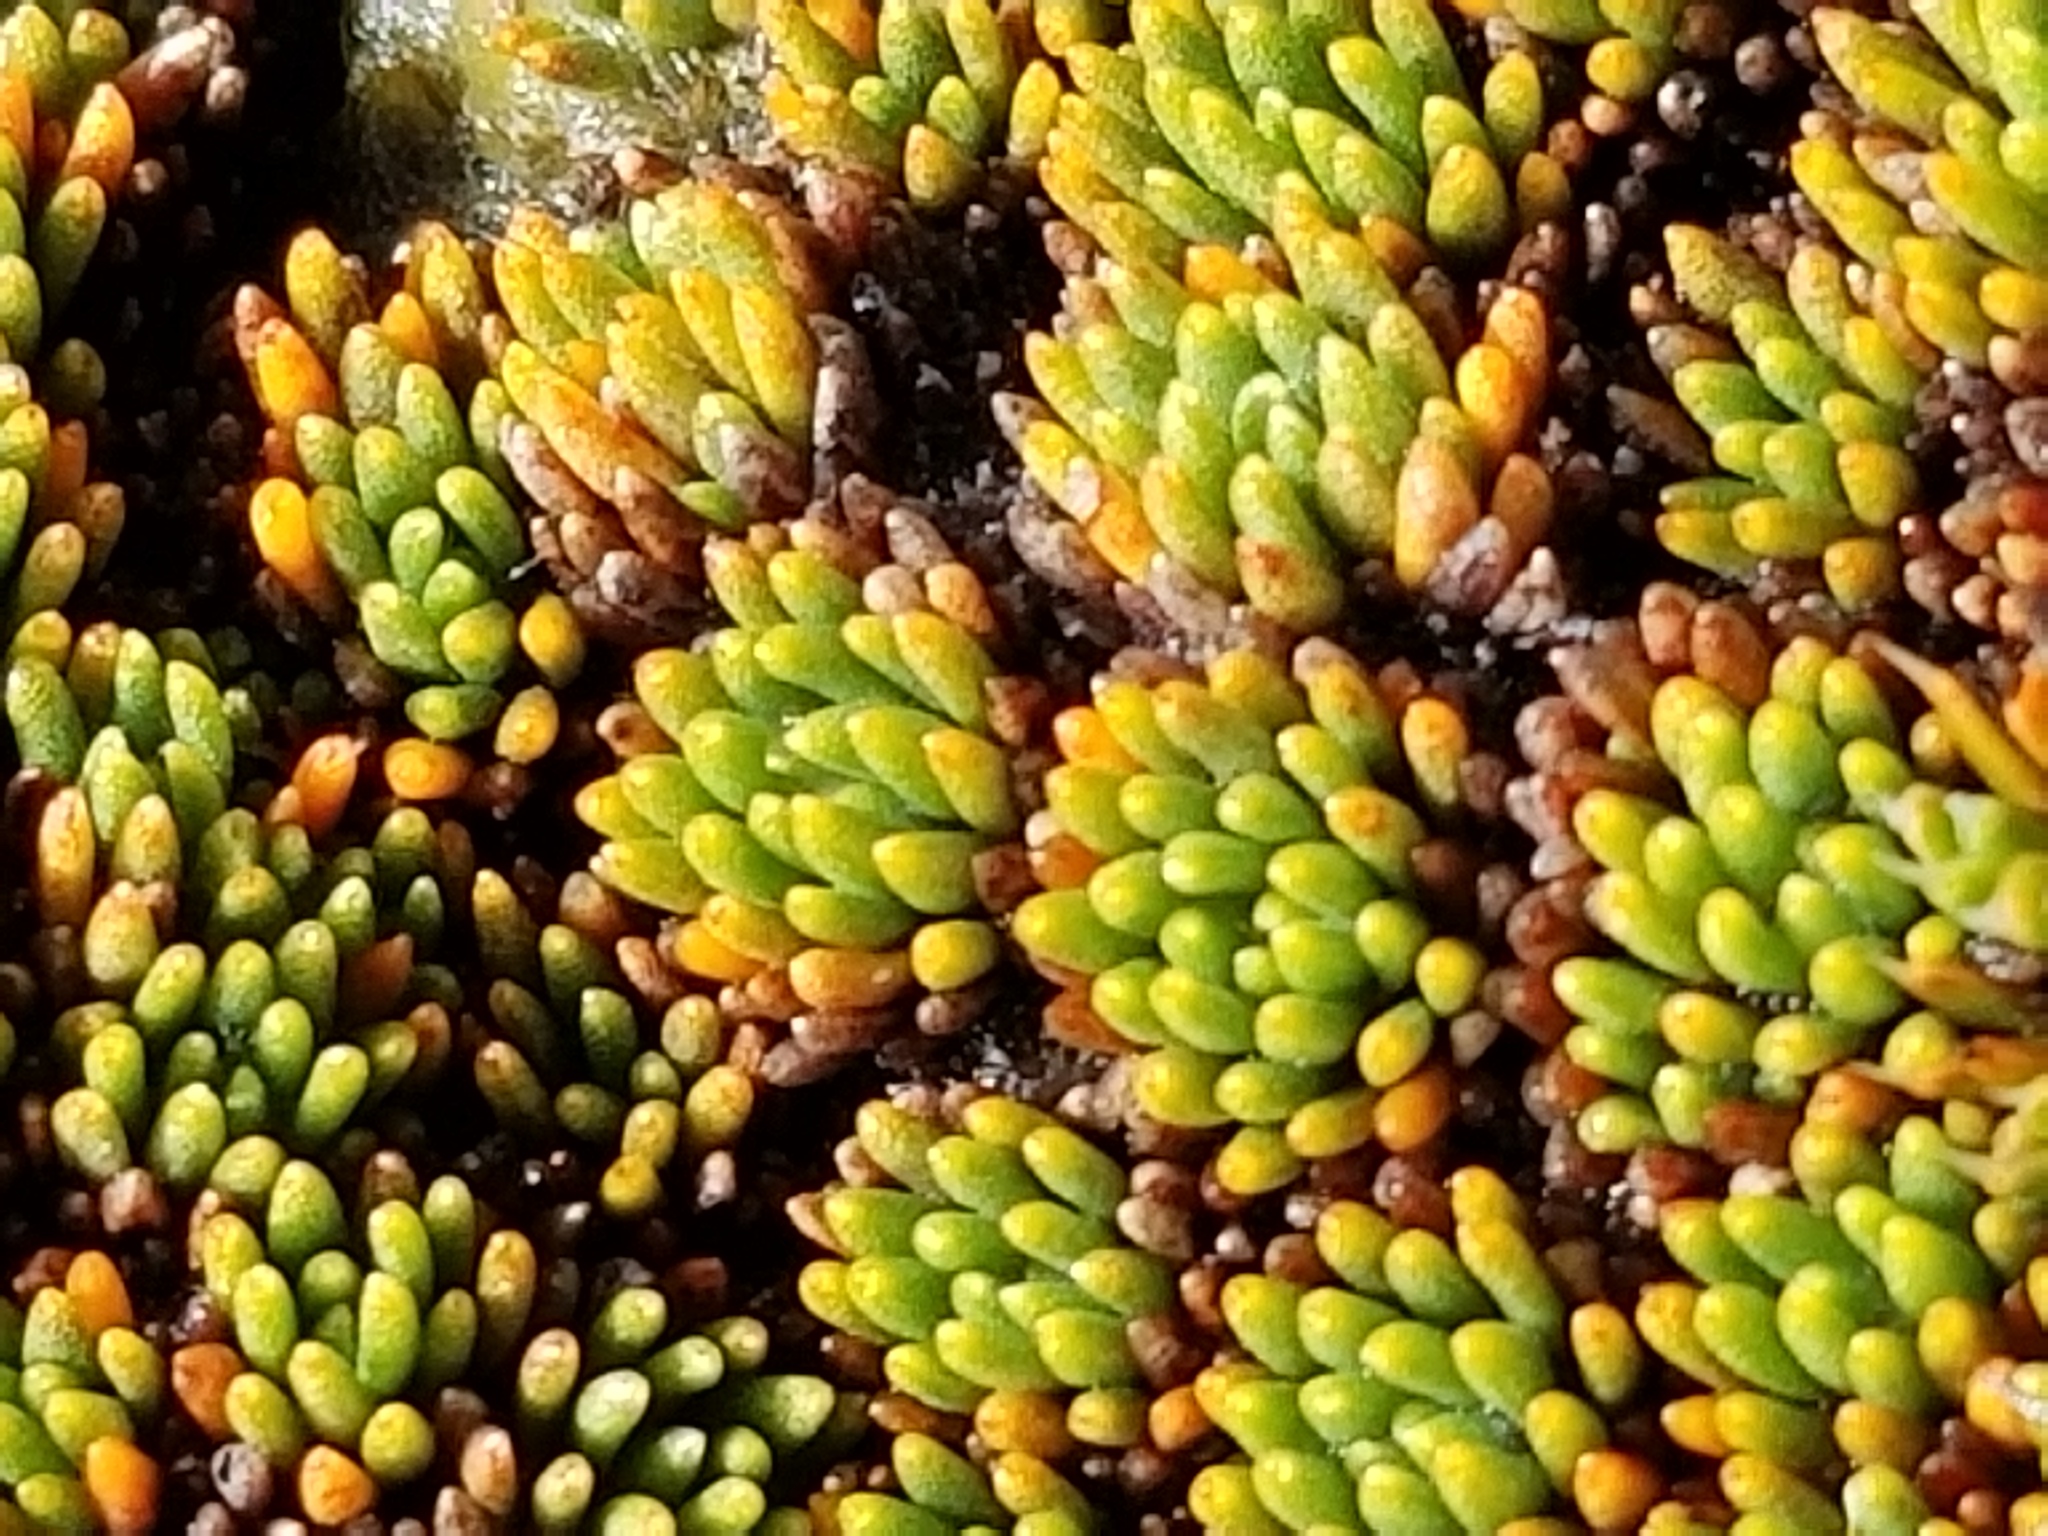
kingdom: Plantae
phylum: Tracheophyta
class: Magnoliopsida
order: Asterales
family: Stylidiaceae
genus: Donatia
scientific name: Donatia novae-zelandiae
